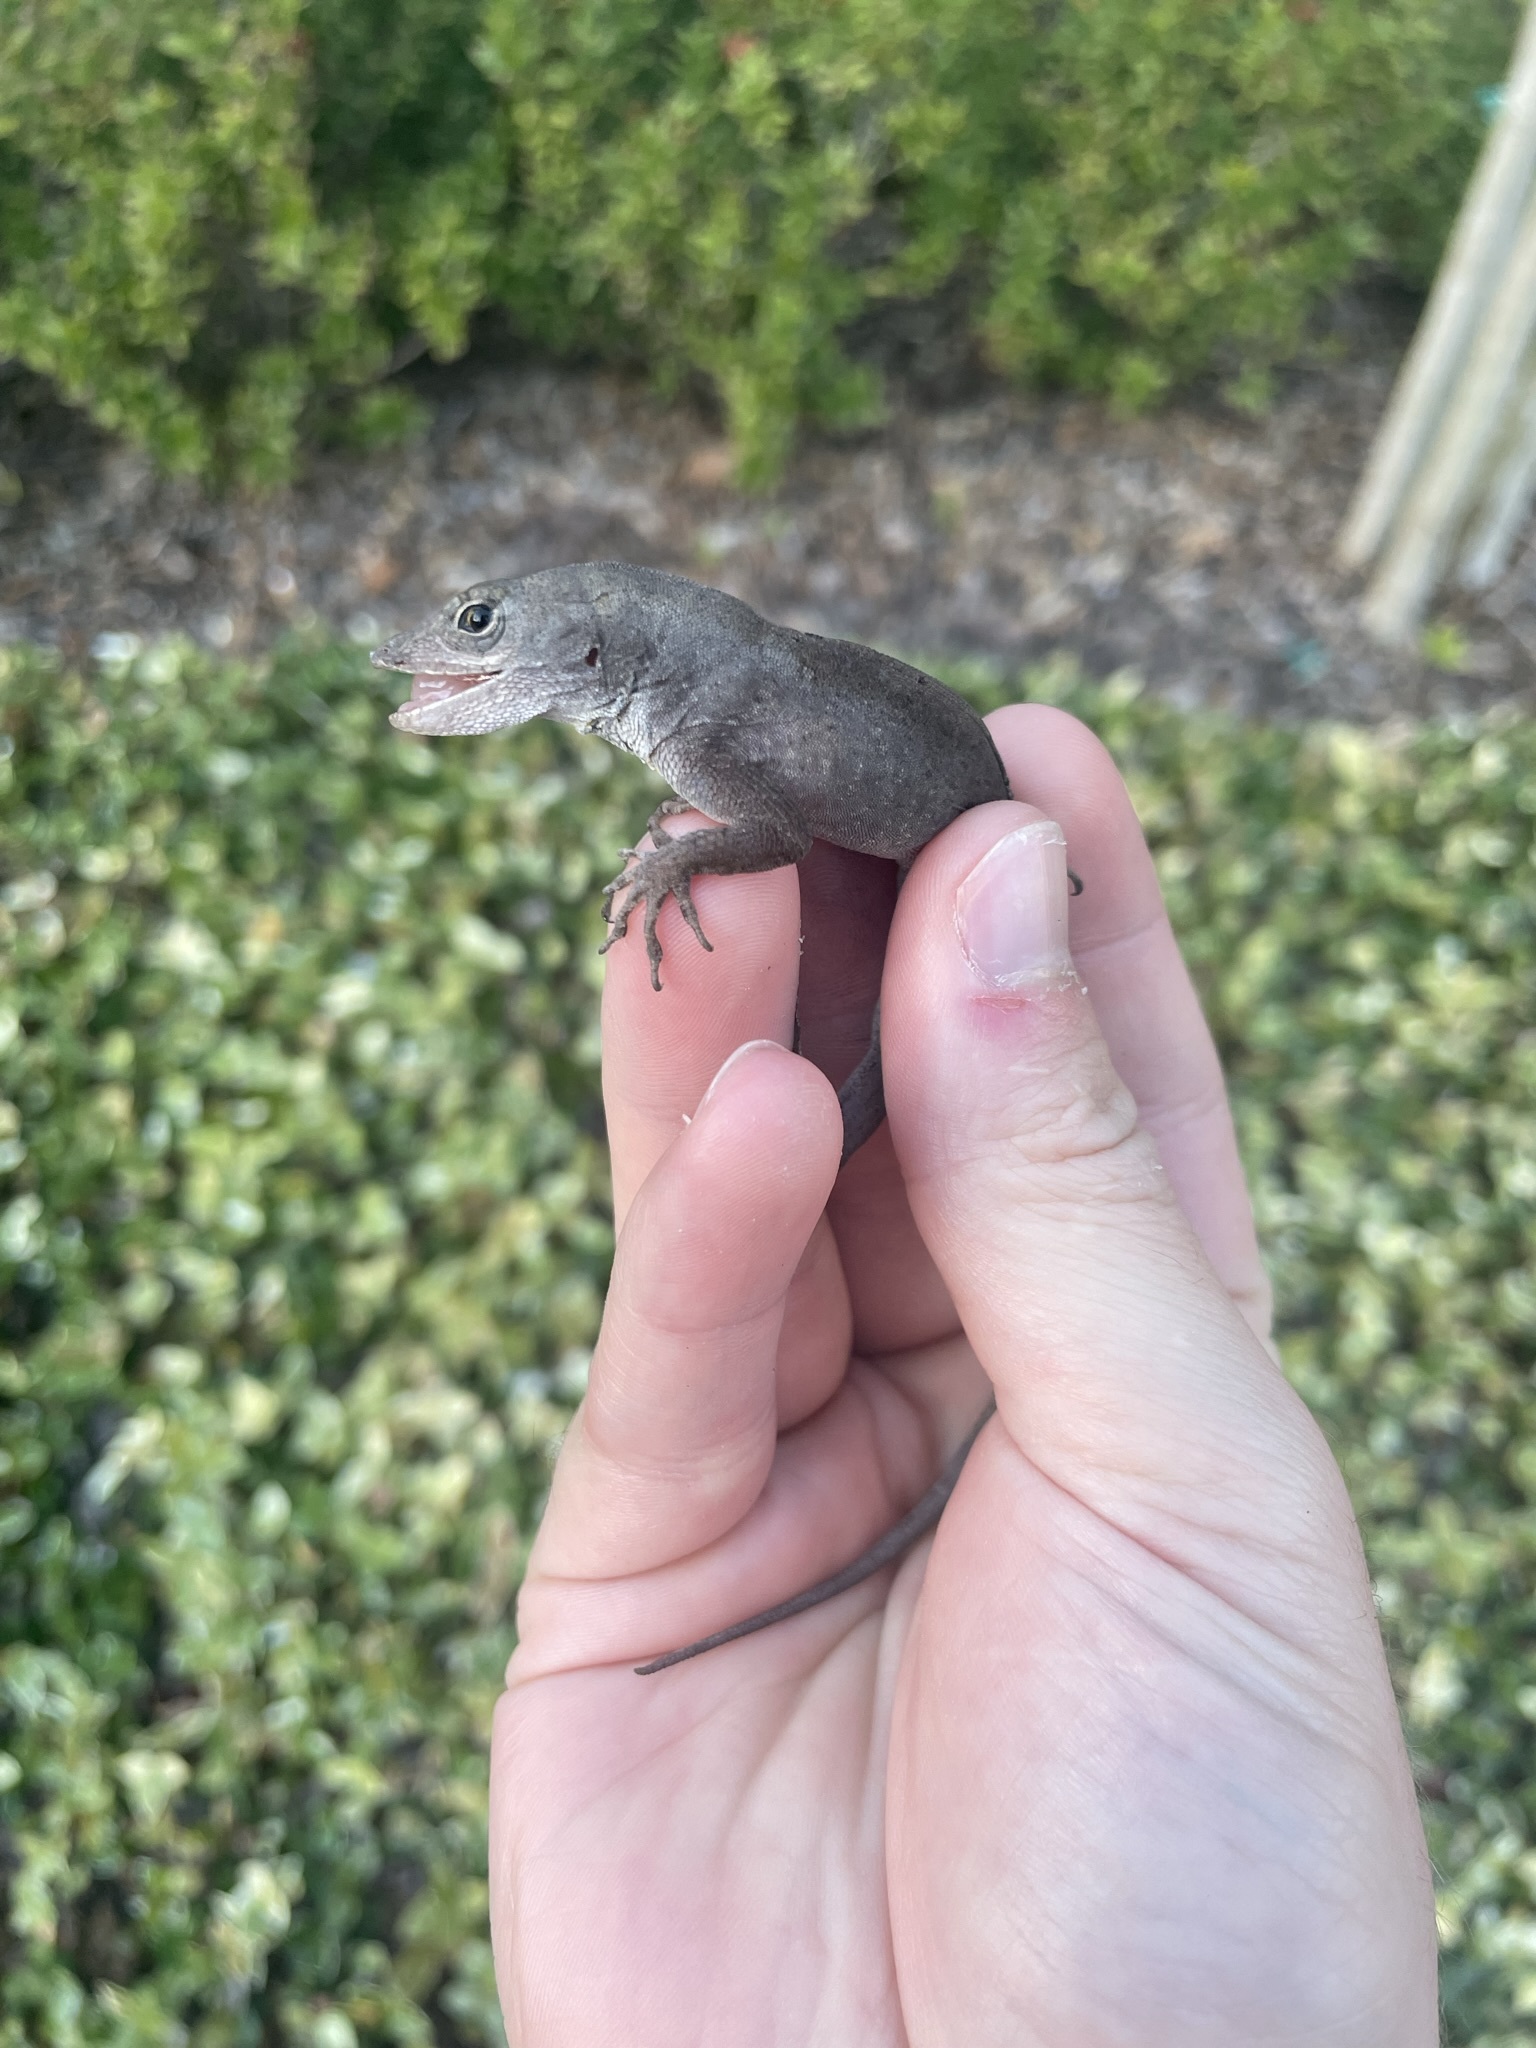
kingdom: Animalia
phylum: Chordata
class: Squamata
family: Dactyloidae
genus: Anolis
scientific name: Anolis sagrei
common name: Brown anole
